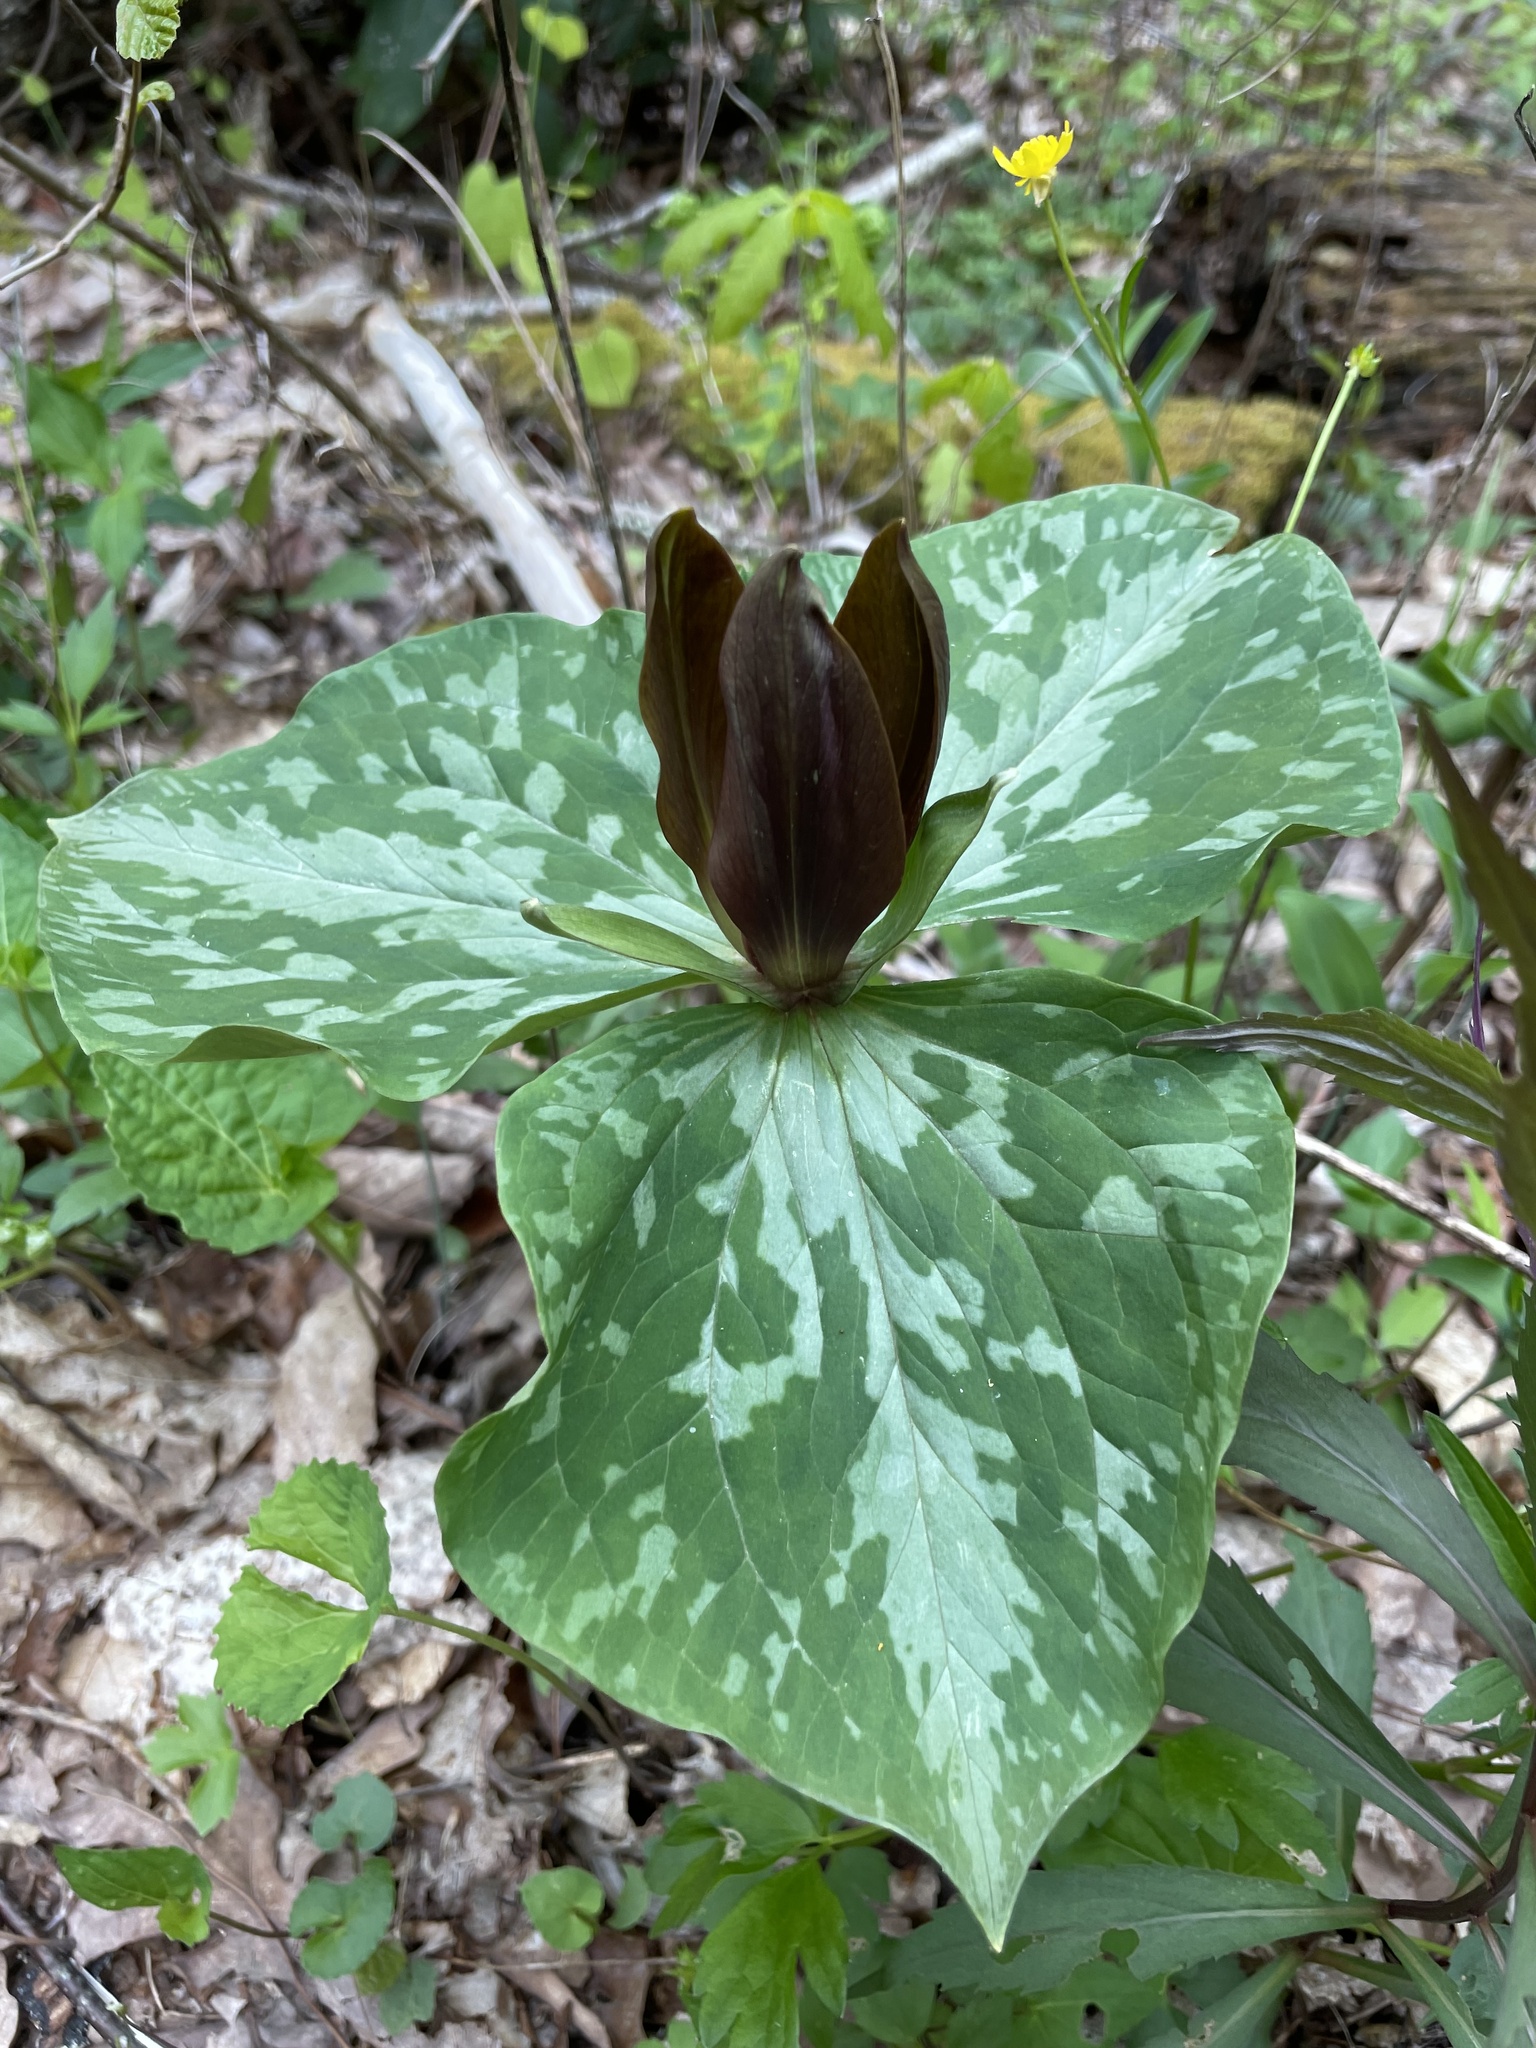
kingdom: Plantae
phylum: Tracheophyta
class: Liliopsida
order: Liliales
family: Melanthiaceae
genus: Trillium
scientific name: Trillium cuneatum
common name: Cuneate trillium
